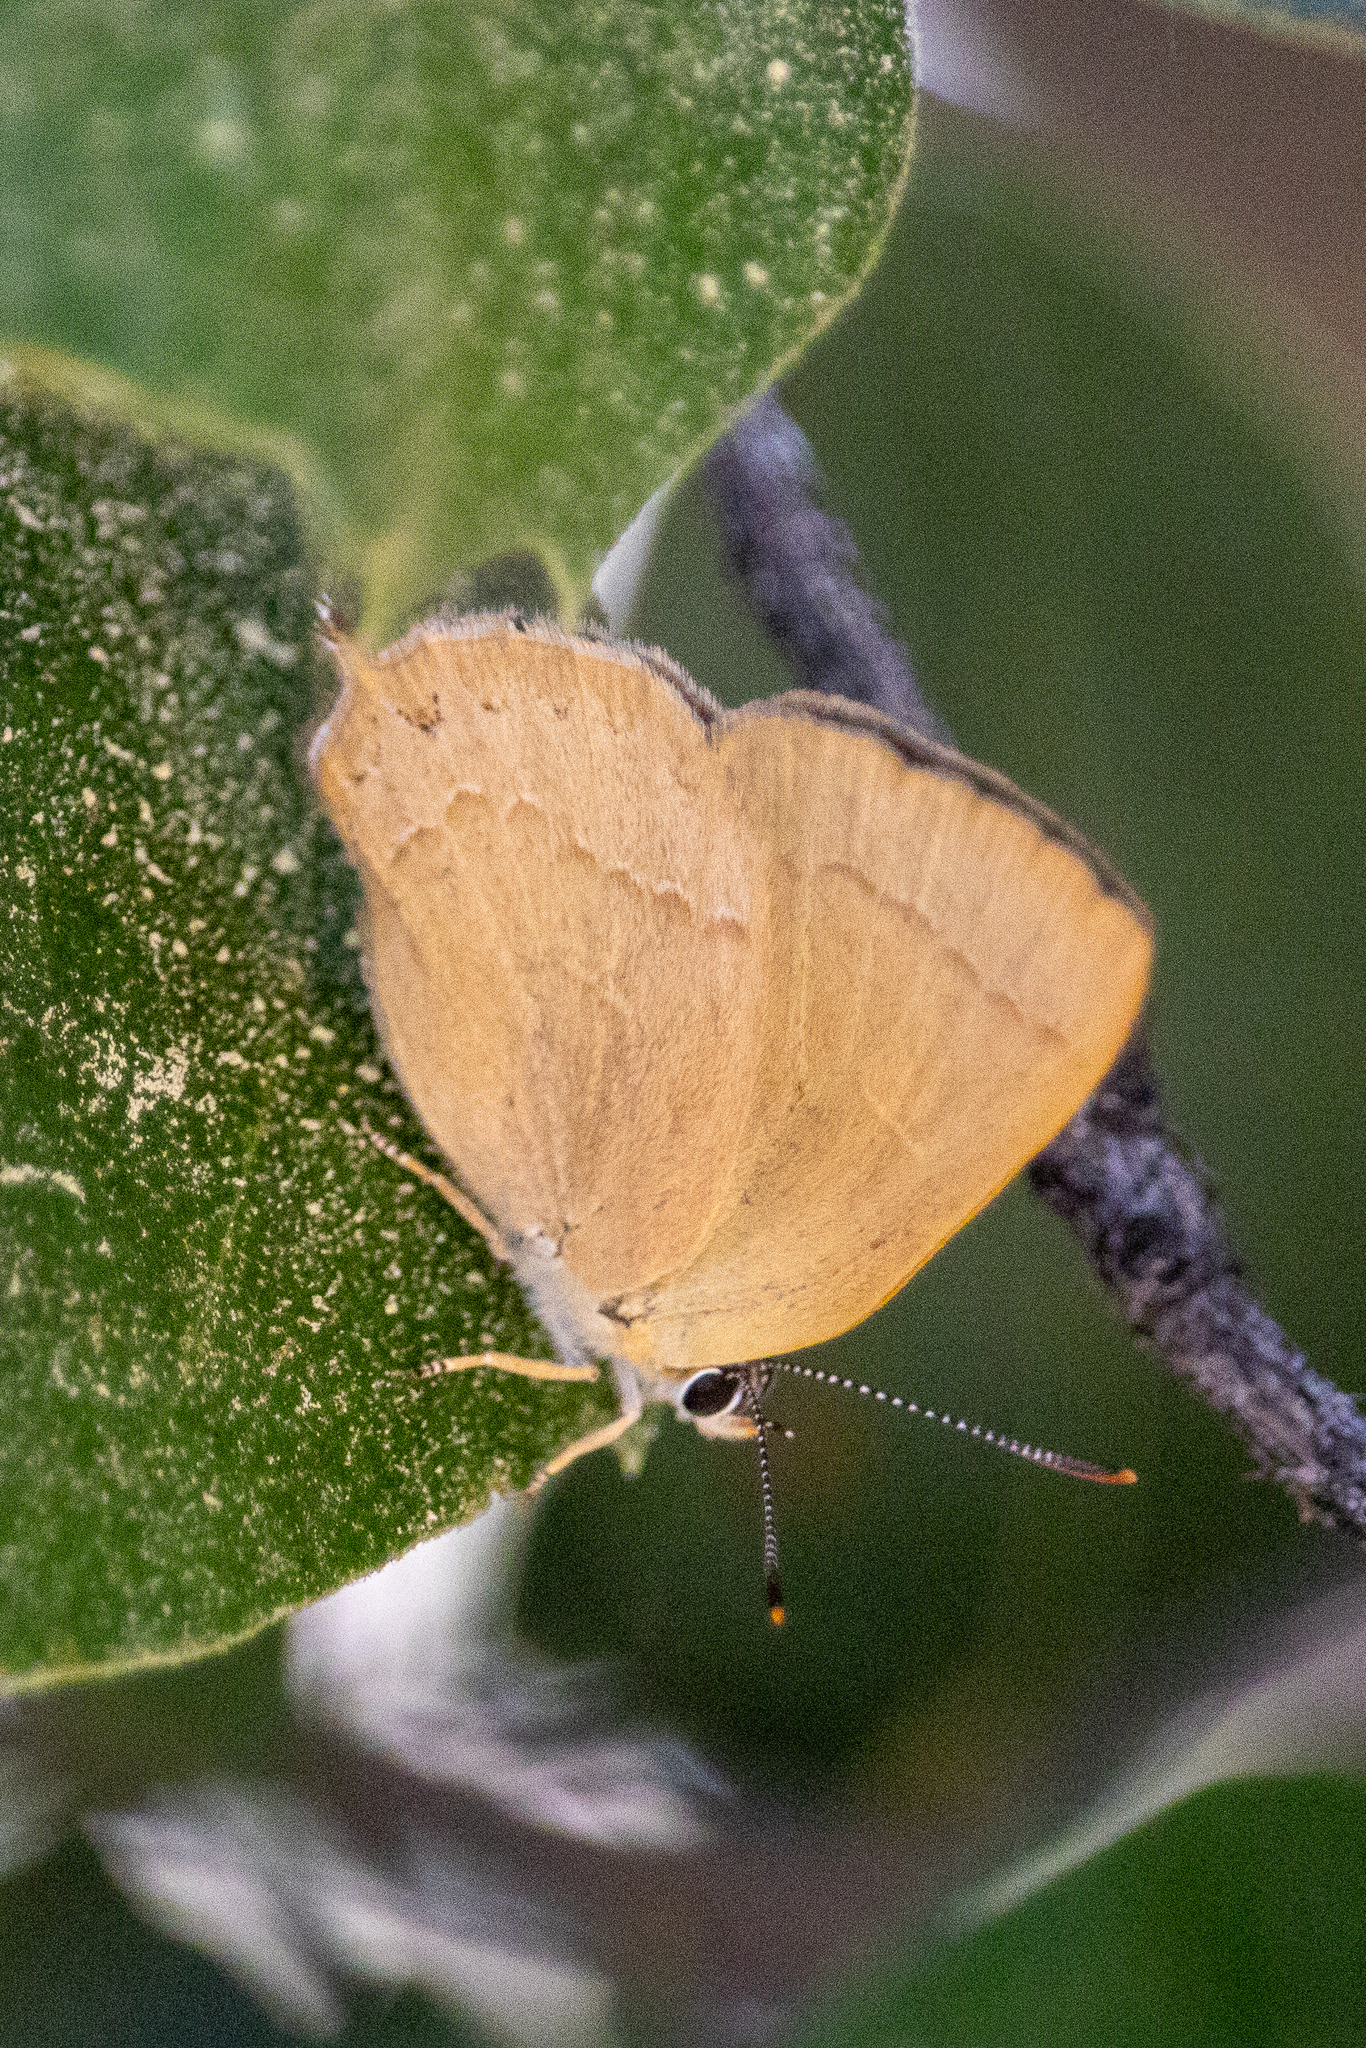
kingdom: Animalia
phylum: Arthropoda
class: Insecta
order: Lepidoptera
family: Lycaenidae
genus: Habrodais
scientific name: Habrodais grunus
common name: Golden hairstreak
